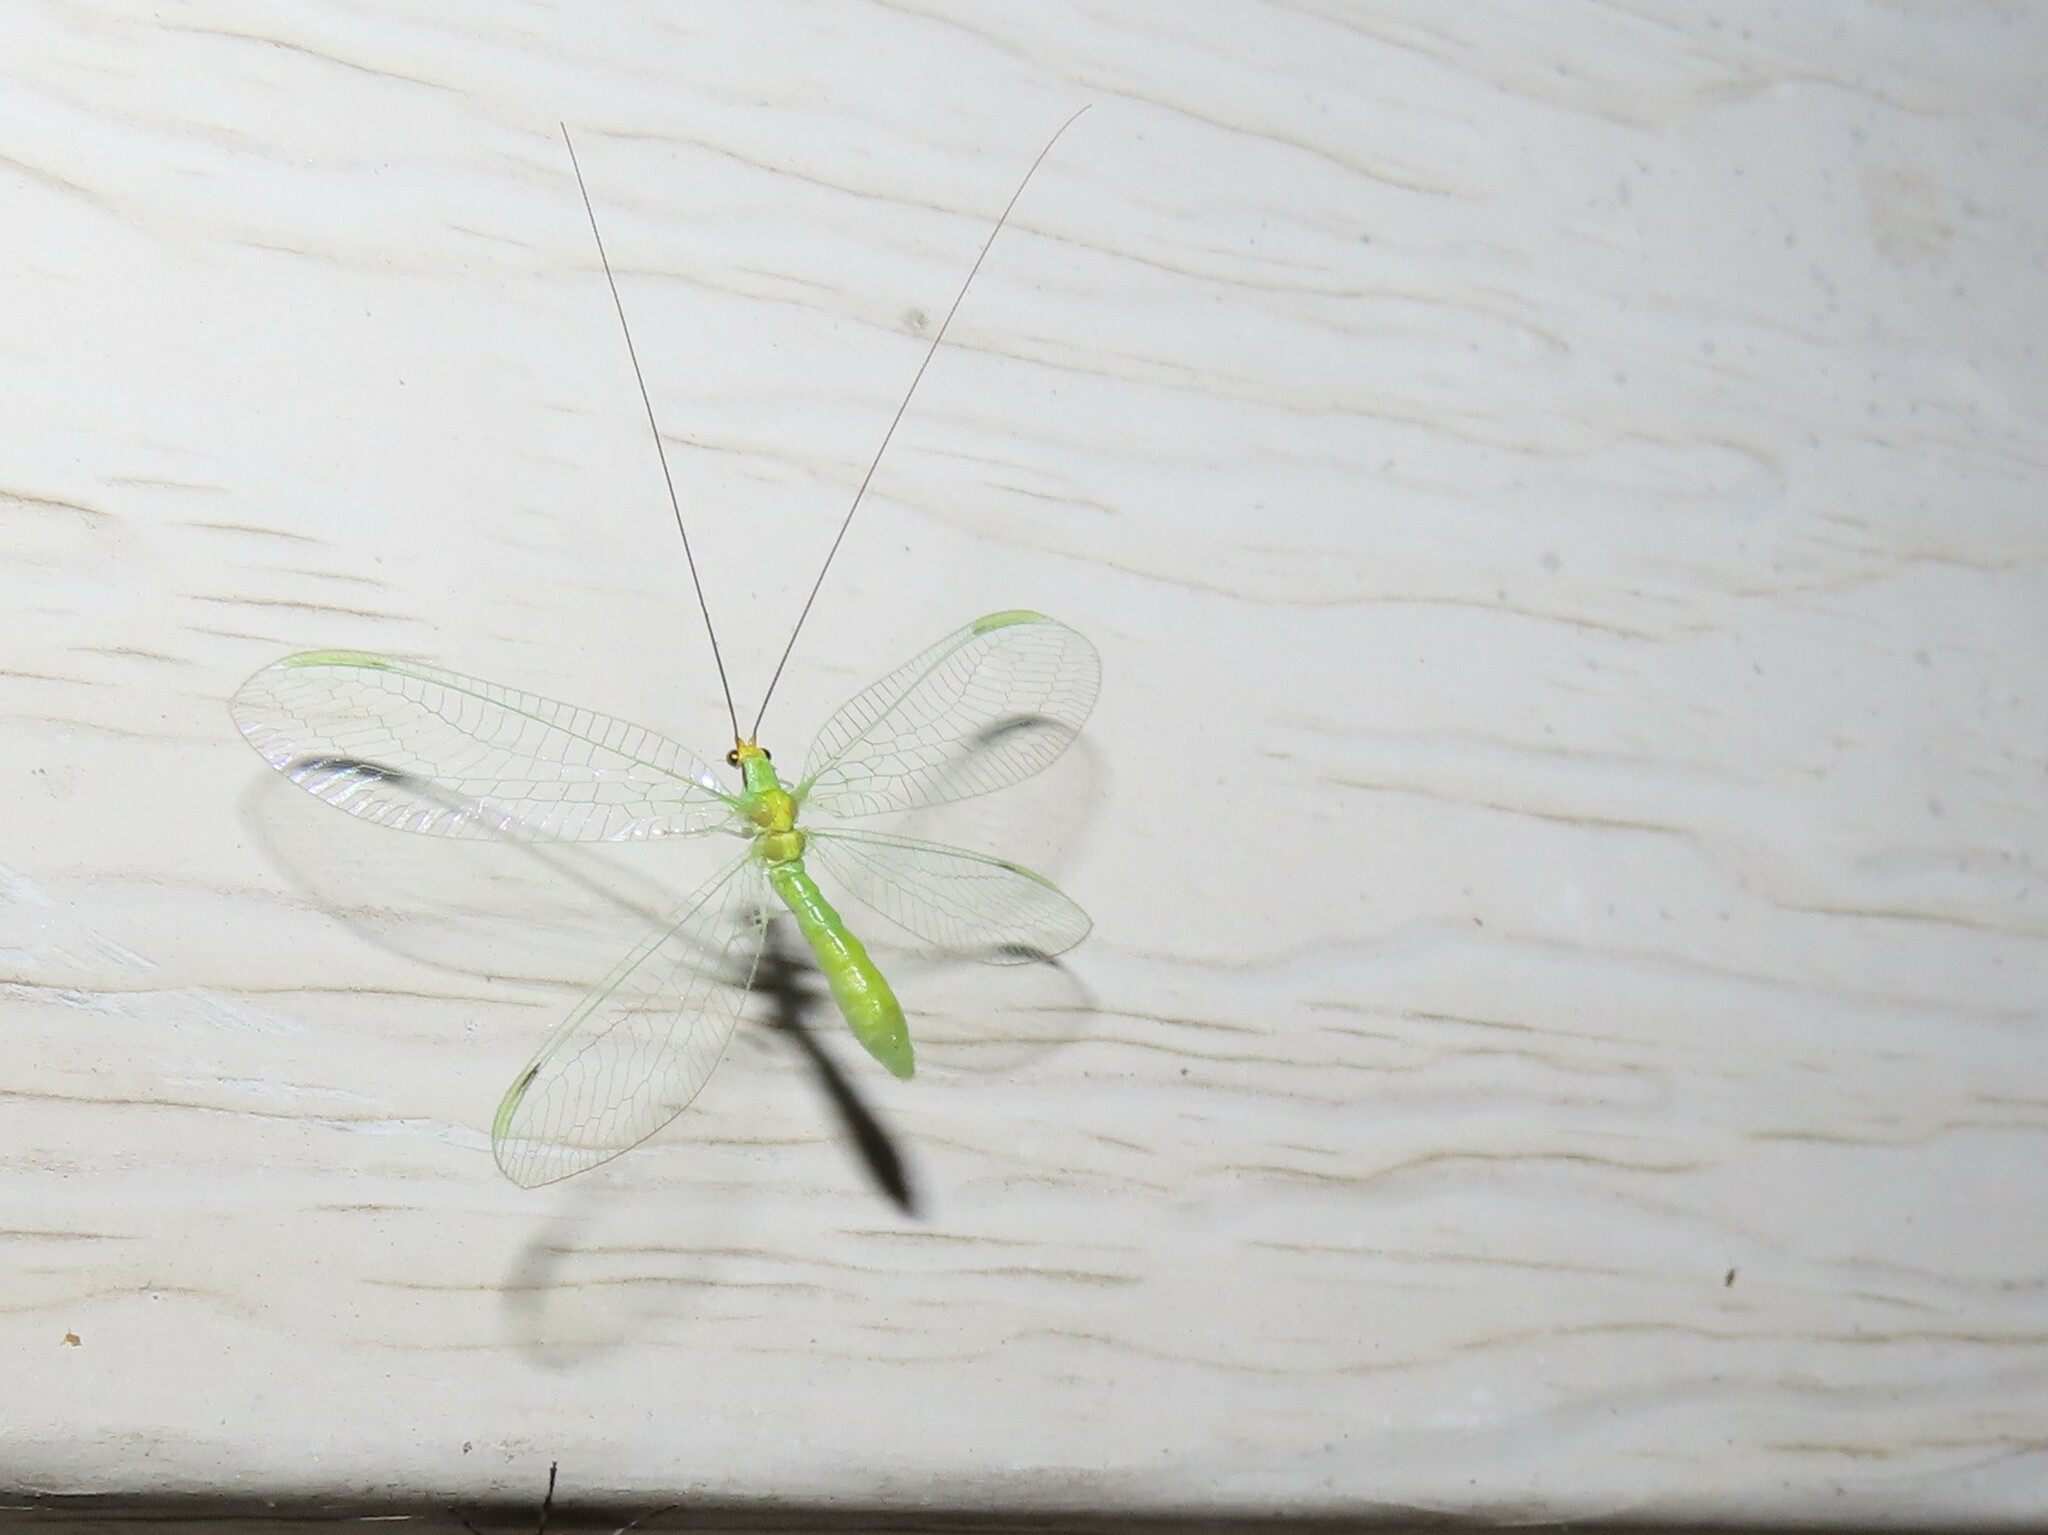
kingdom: Animalia
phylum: Arthropoda
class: Insecta
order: Neuroptera
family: Chrysopidae
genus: Leucochrysa
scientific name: Leucochrysa pavida
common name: Lichen-carrying green lacewing
